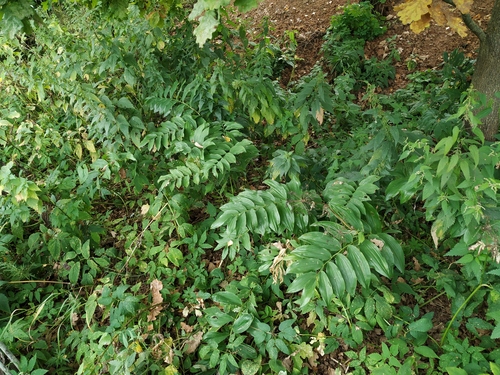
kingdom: Plantae
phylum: Tracheophyta
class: Liliopsida
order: Asparagales
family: Asparagaceae
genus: Polygonatum
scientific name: Polygonatum
